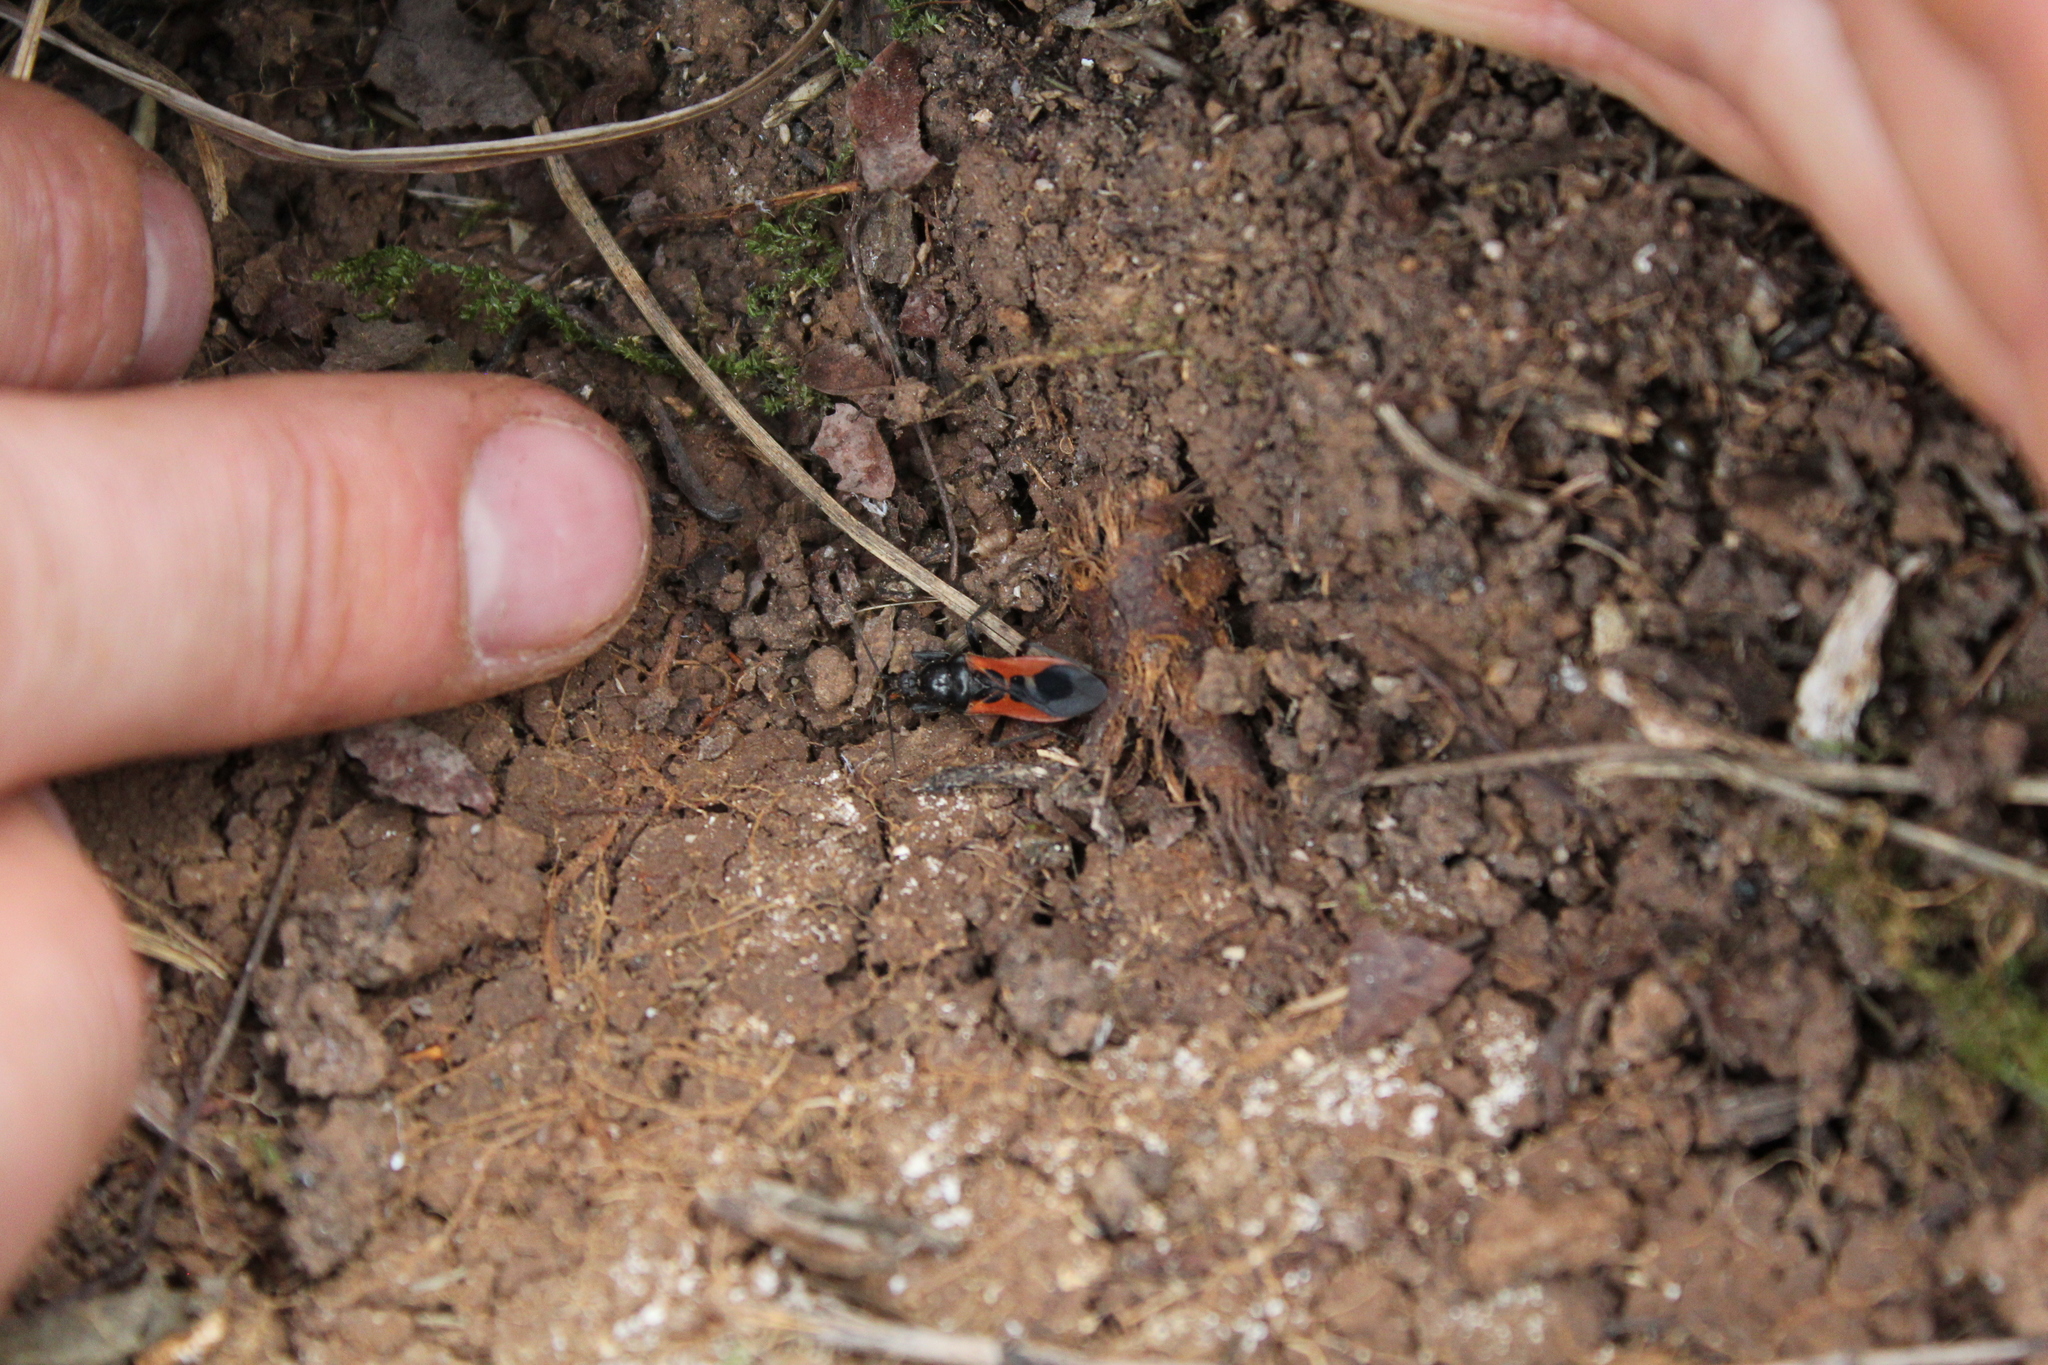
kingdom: Animalia
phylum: Arthropoda
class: Insecta
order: Hemiptera
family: Reduviidae
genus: Peirates
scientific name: Peirates stridulus
